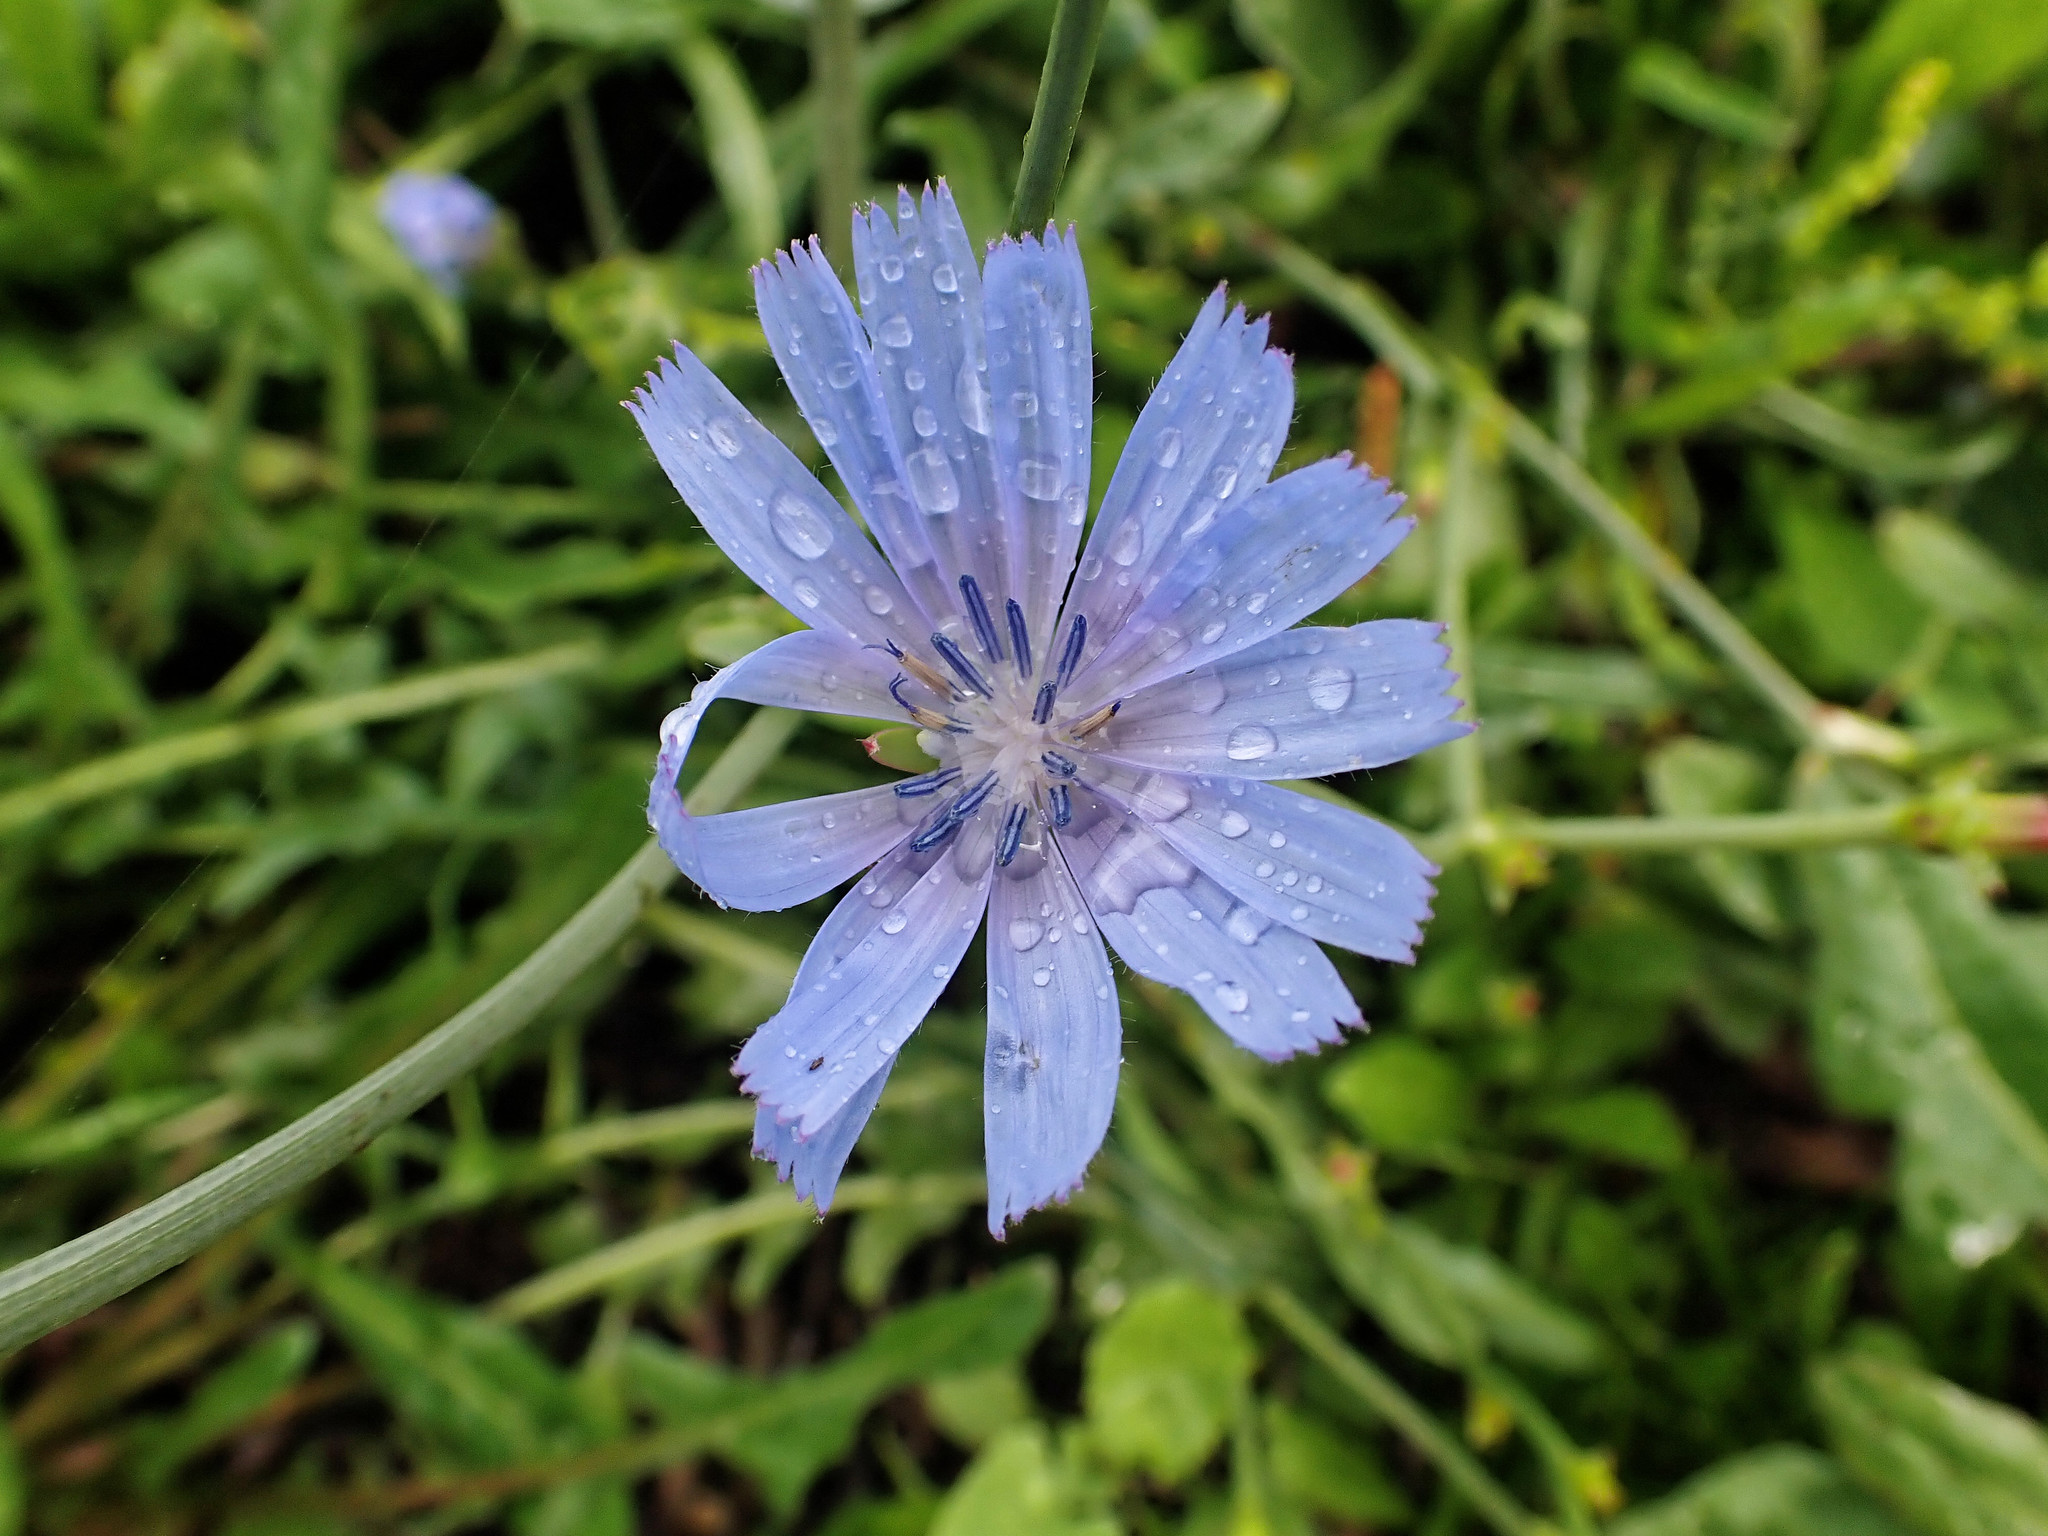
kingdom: Plantae
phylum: Tracheophyta
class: Magnoliopsida
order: Asterales
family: Asteraceae
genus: Cichorium
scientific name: Cichorium intybus
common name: Chicory
